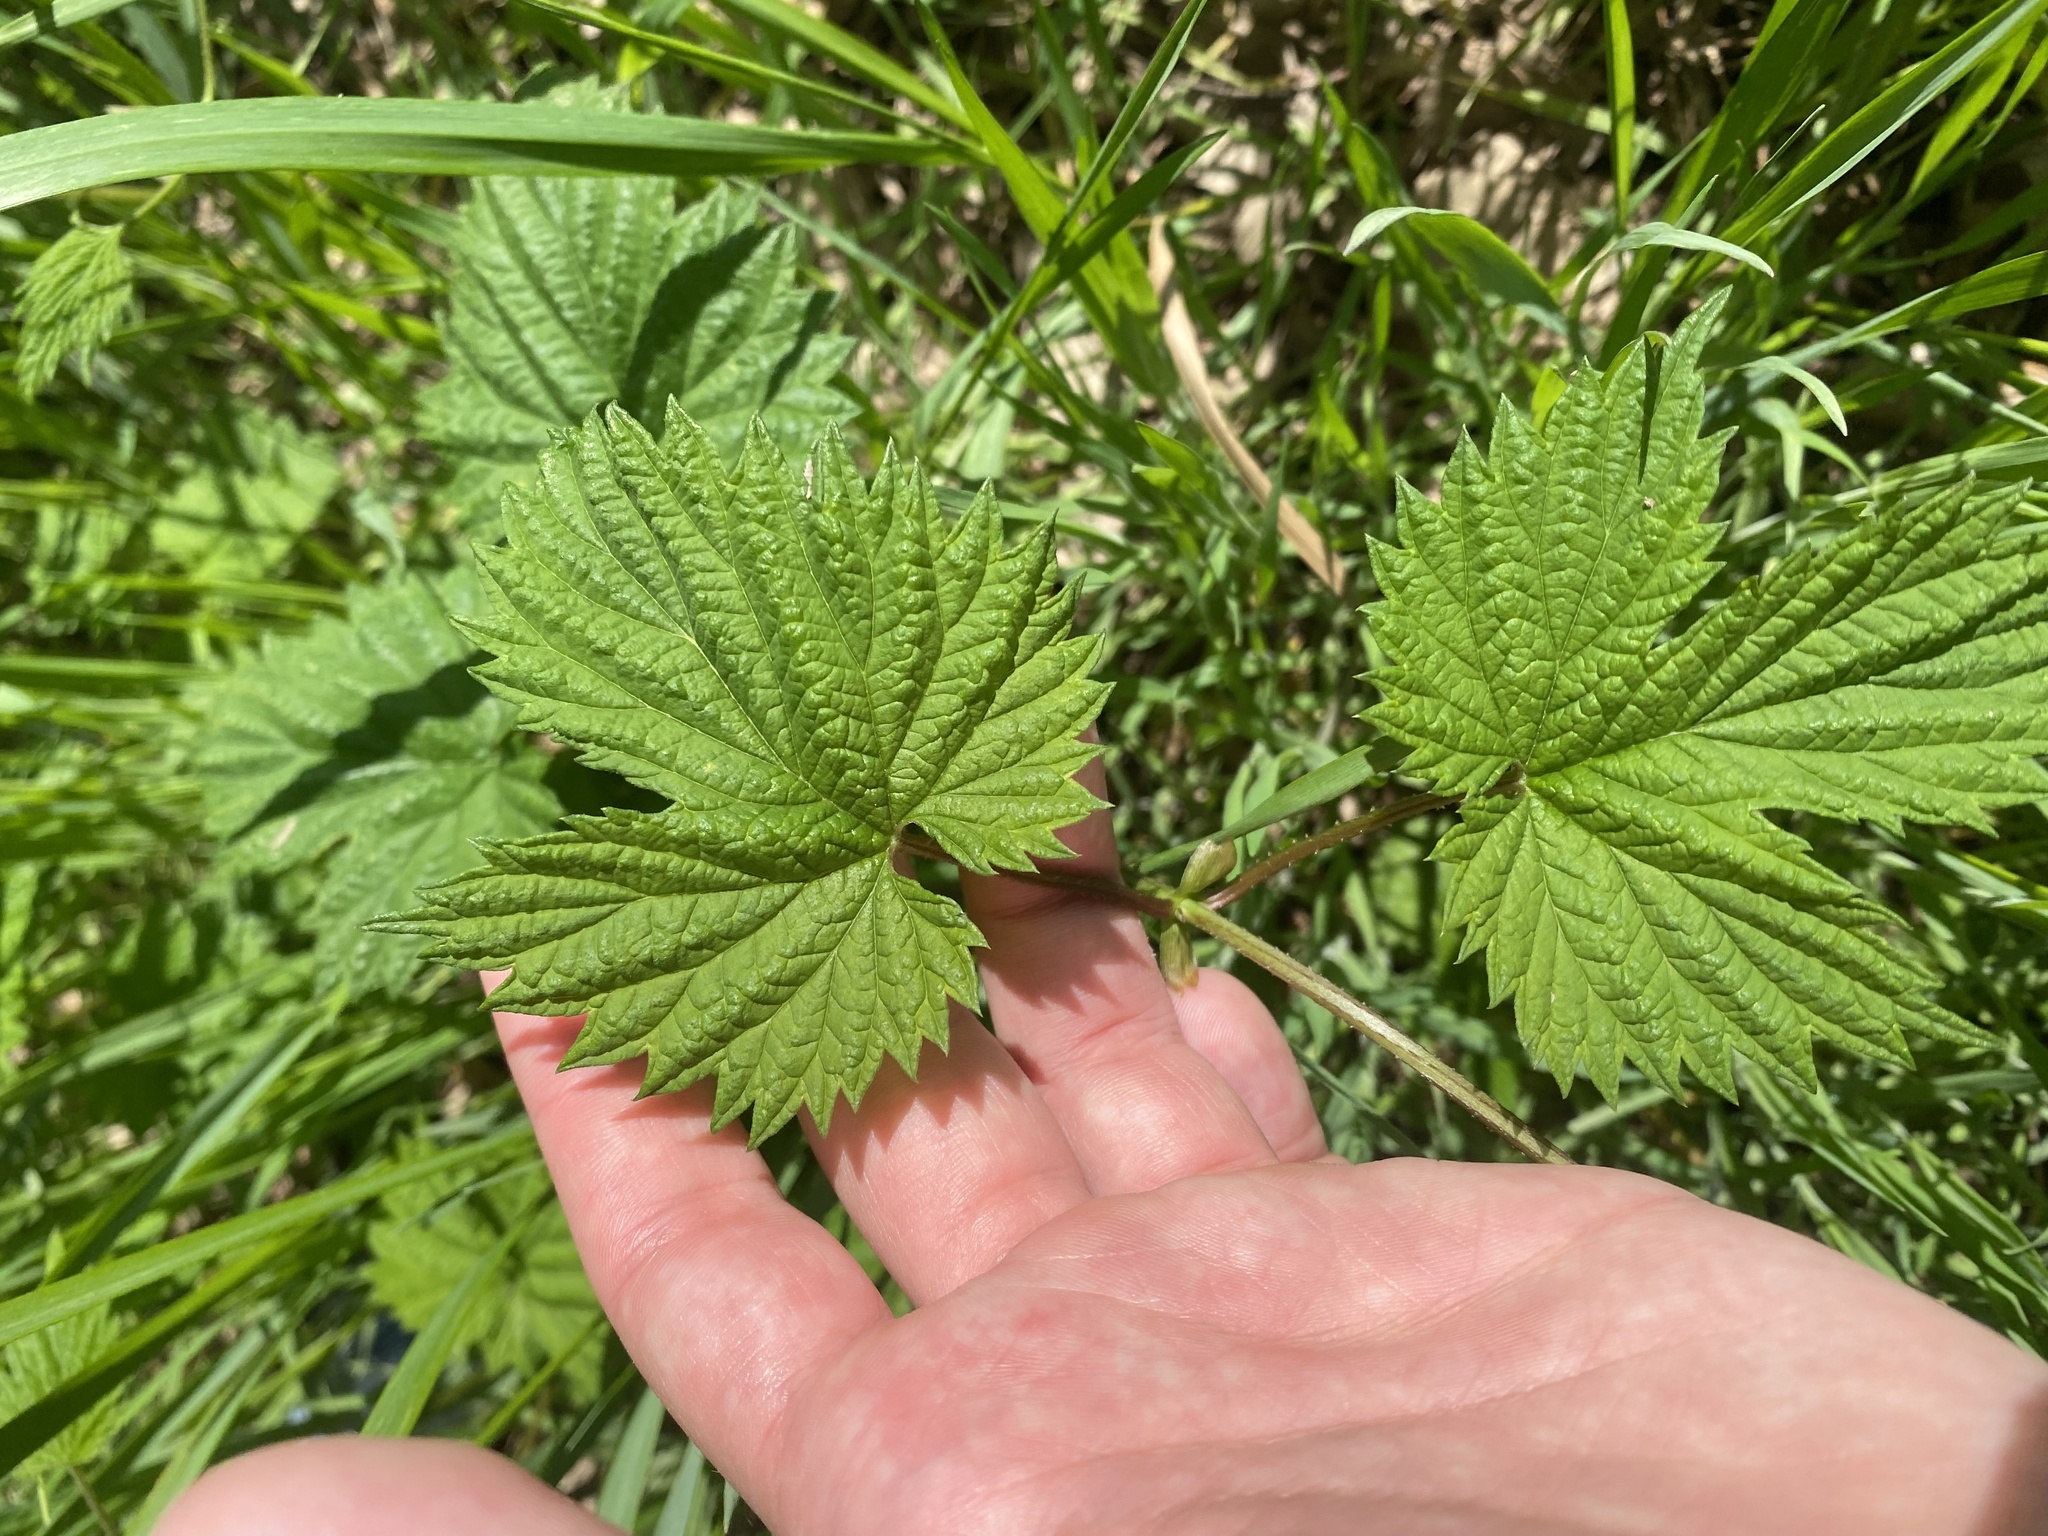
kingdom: Plantae
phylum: Tracheophyta
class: Magnoliopsida
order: Rosales
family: Cannabaceae
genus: Humulus
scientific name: Humulus lupulus
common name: Hop
